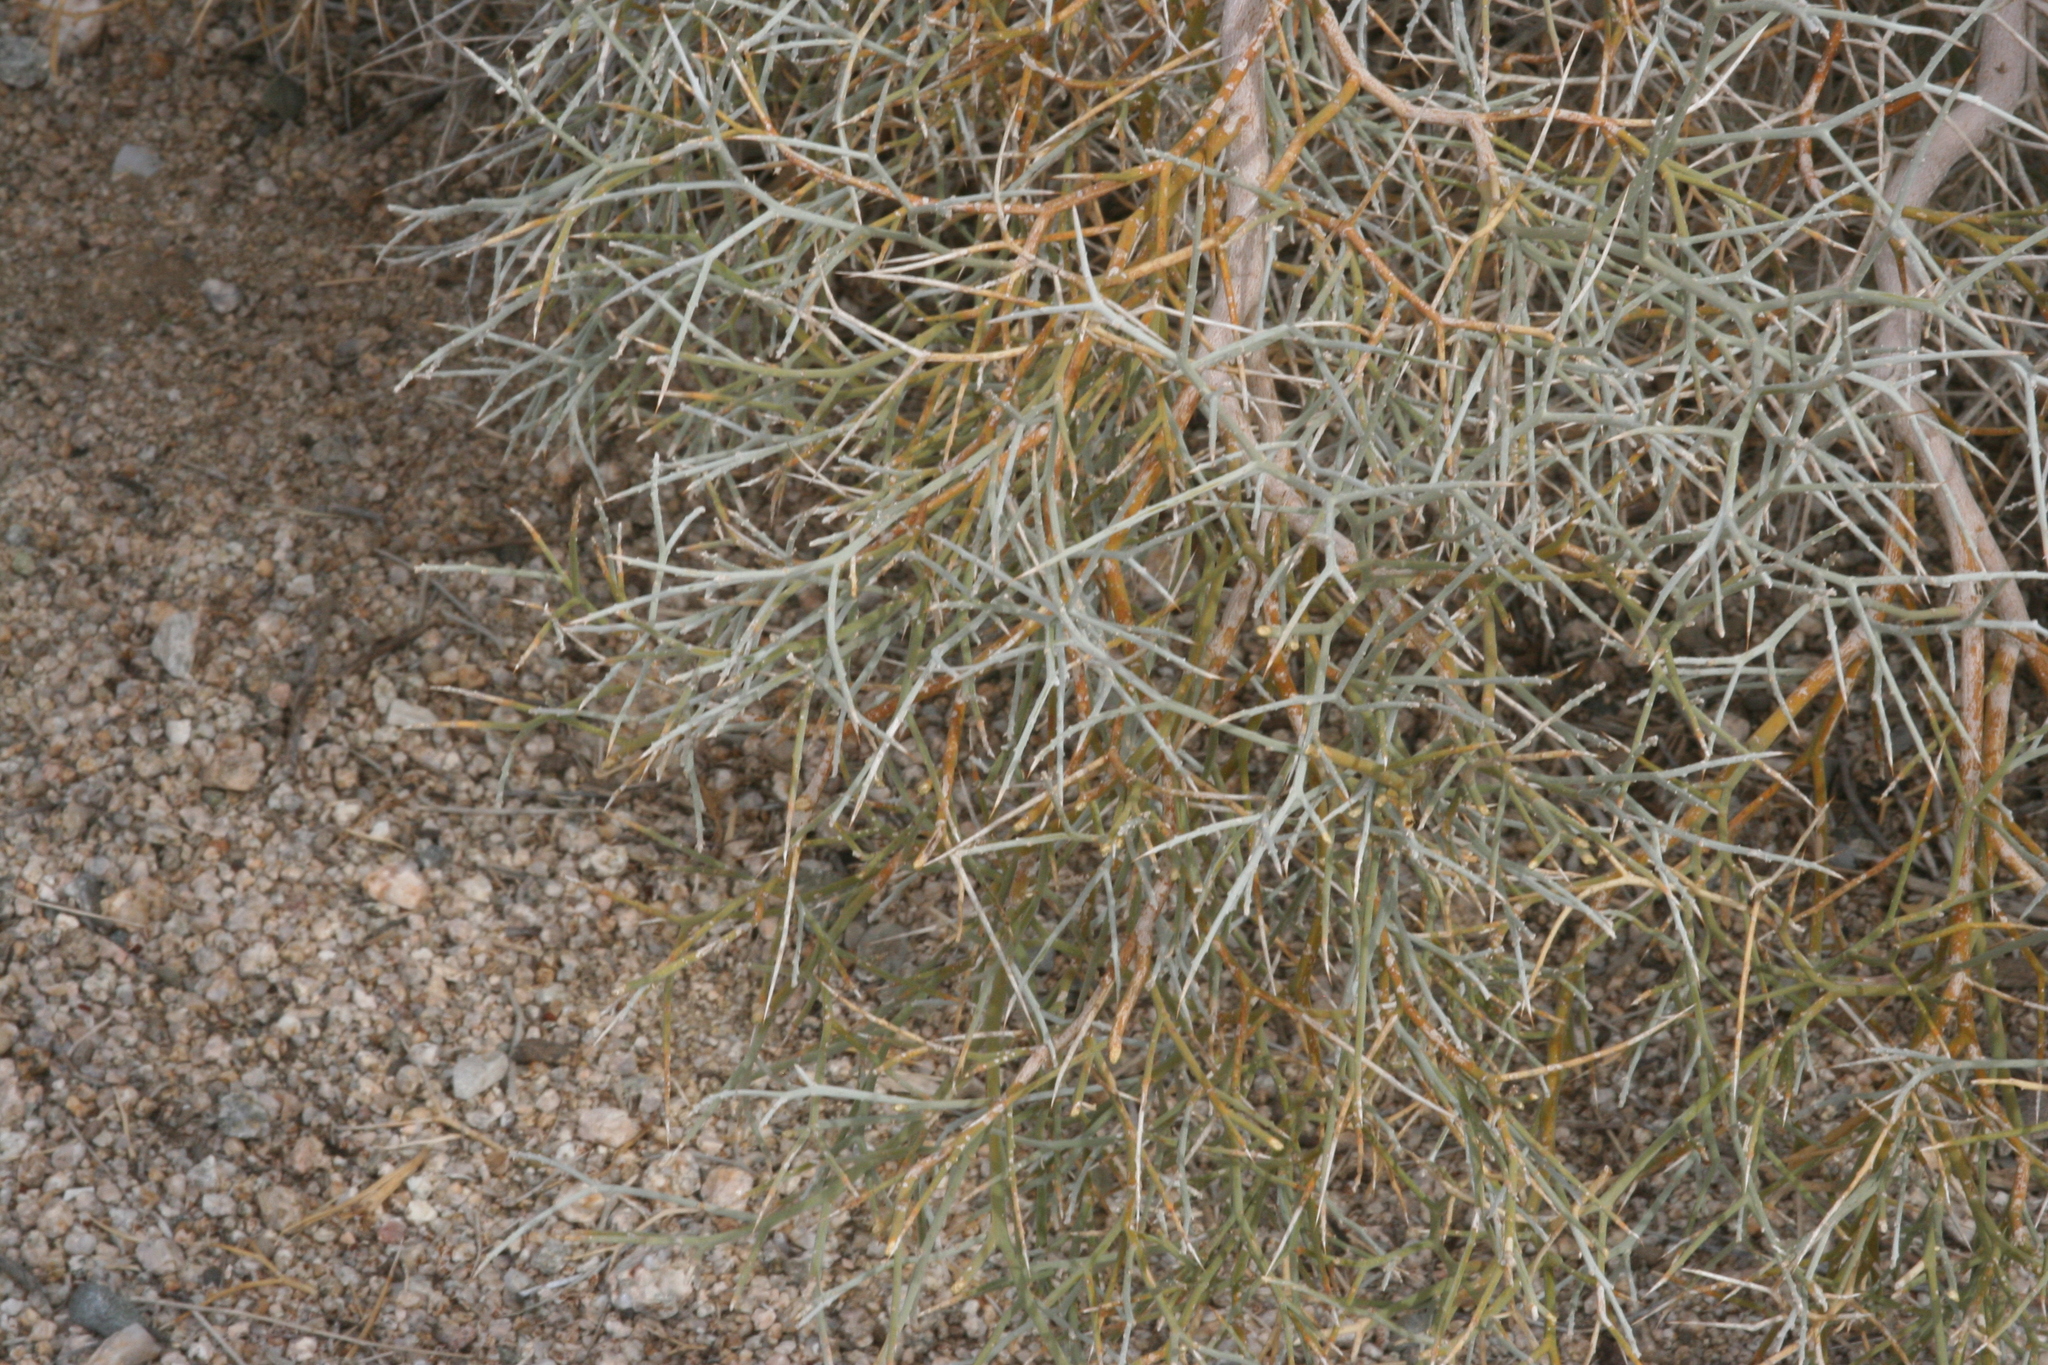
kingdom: Plantae
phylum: Tracheophyta
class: Magnoliopsida
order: Fabales
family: Fabaceae
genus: Psorothamnus
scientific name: Psorothamnus spinosus
